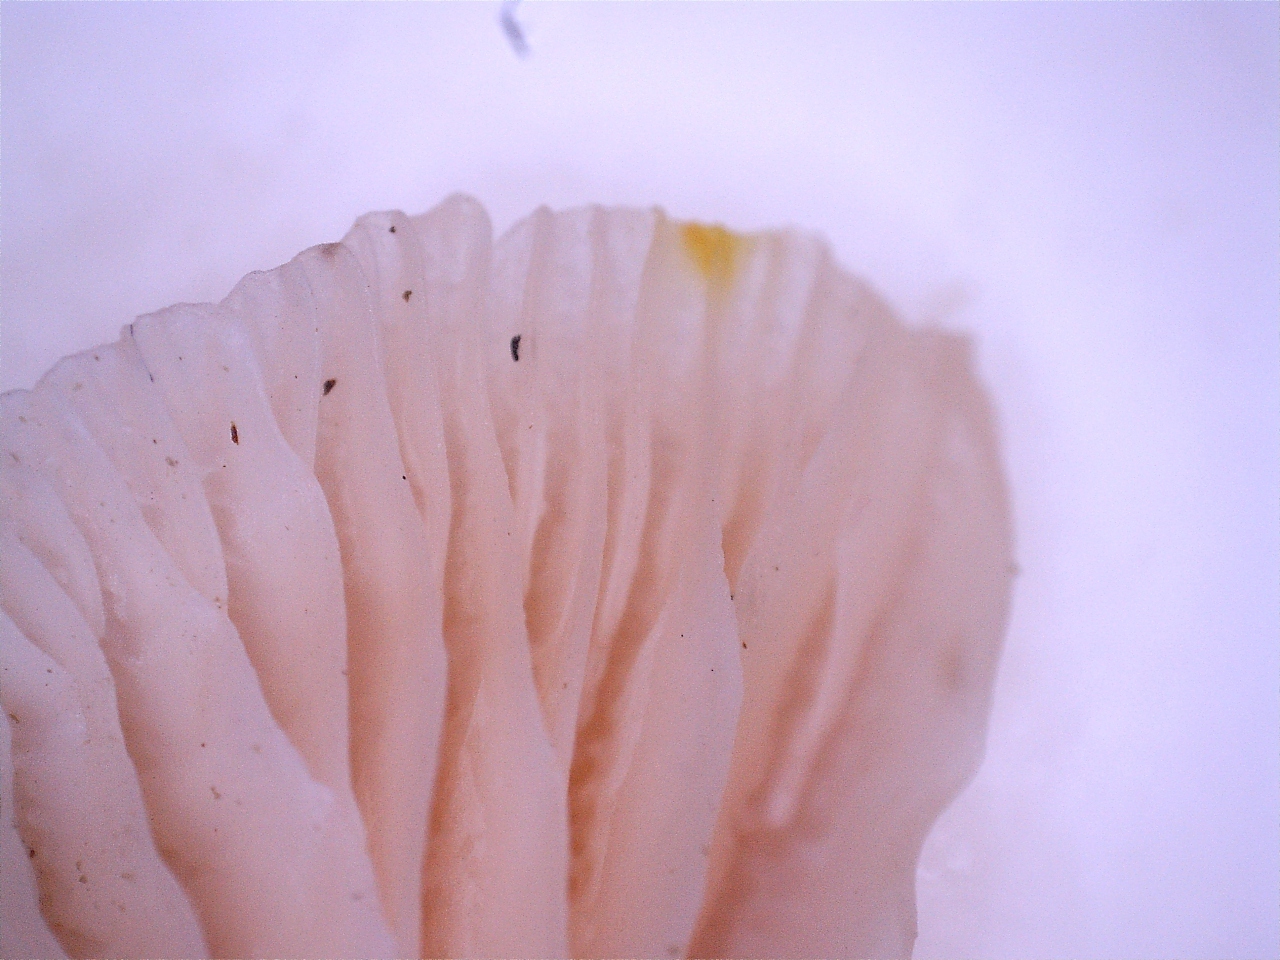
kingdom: Fungi
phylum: Basidiomycota
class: Agaricomycetes
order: Agaricales
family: Physalacriaceae
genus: Rhodotus
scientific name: Rhodotus palmatus
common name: Wrinkled peach
